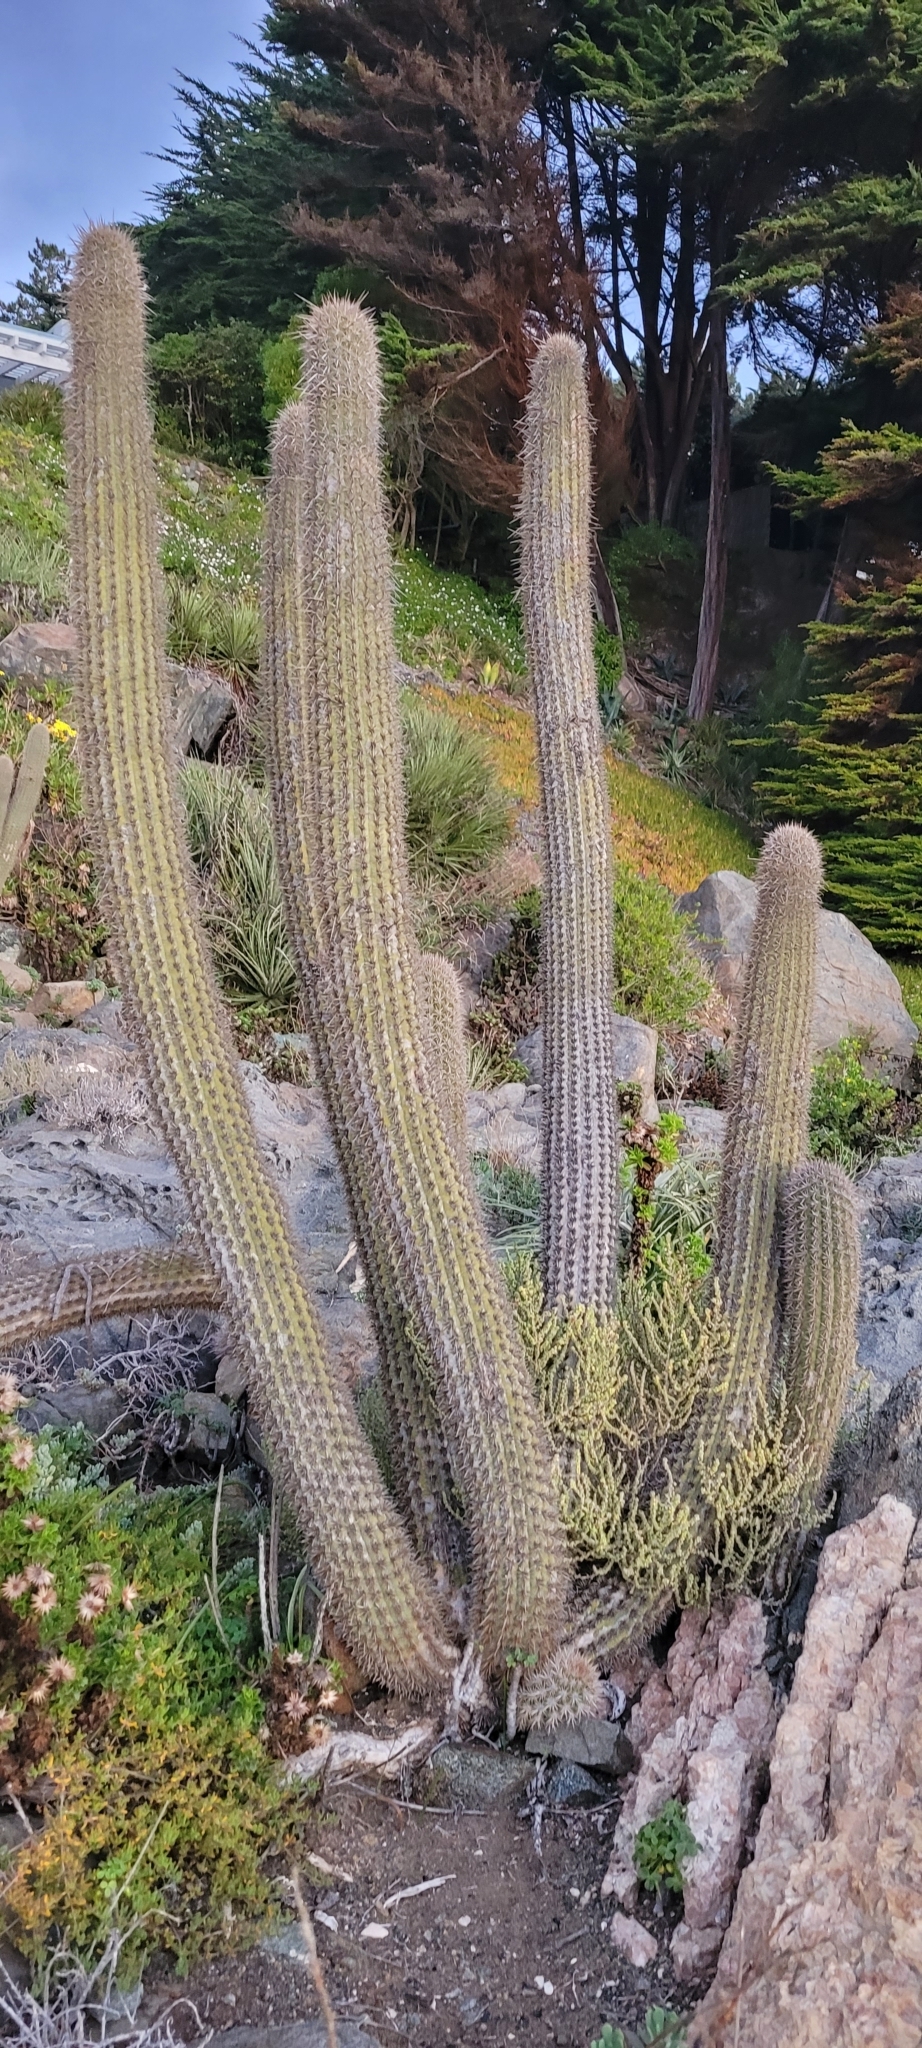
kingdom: Plantae
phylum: Tracheophyta
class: Magnoliopsida
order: Caryophyllales
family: Cactaceae
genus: Leucostele
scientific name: Leucostele litoralis
